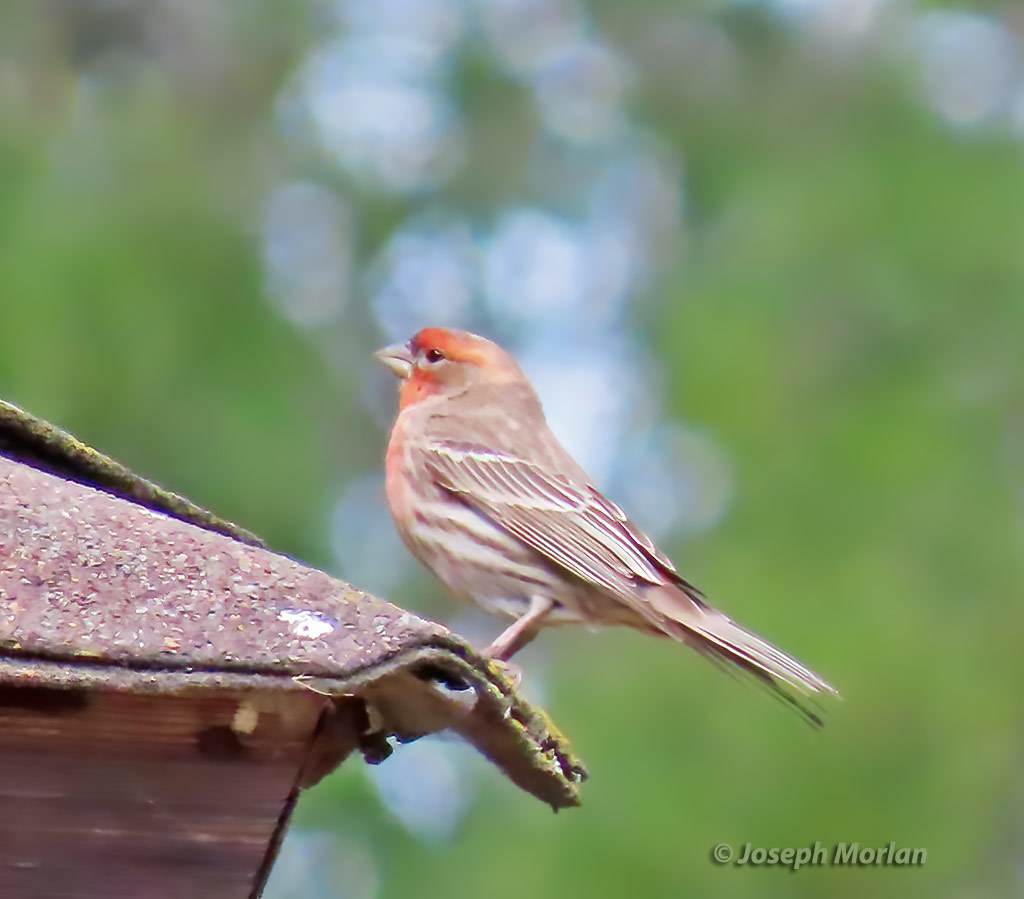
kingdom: Animalia
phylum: Chordata
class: Aves
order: Passeriformes
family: Fringillidae
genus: Haemorhous
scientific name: Haemorhous mexicanus
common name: House finch
